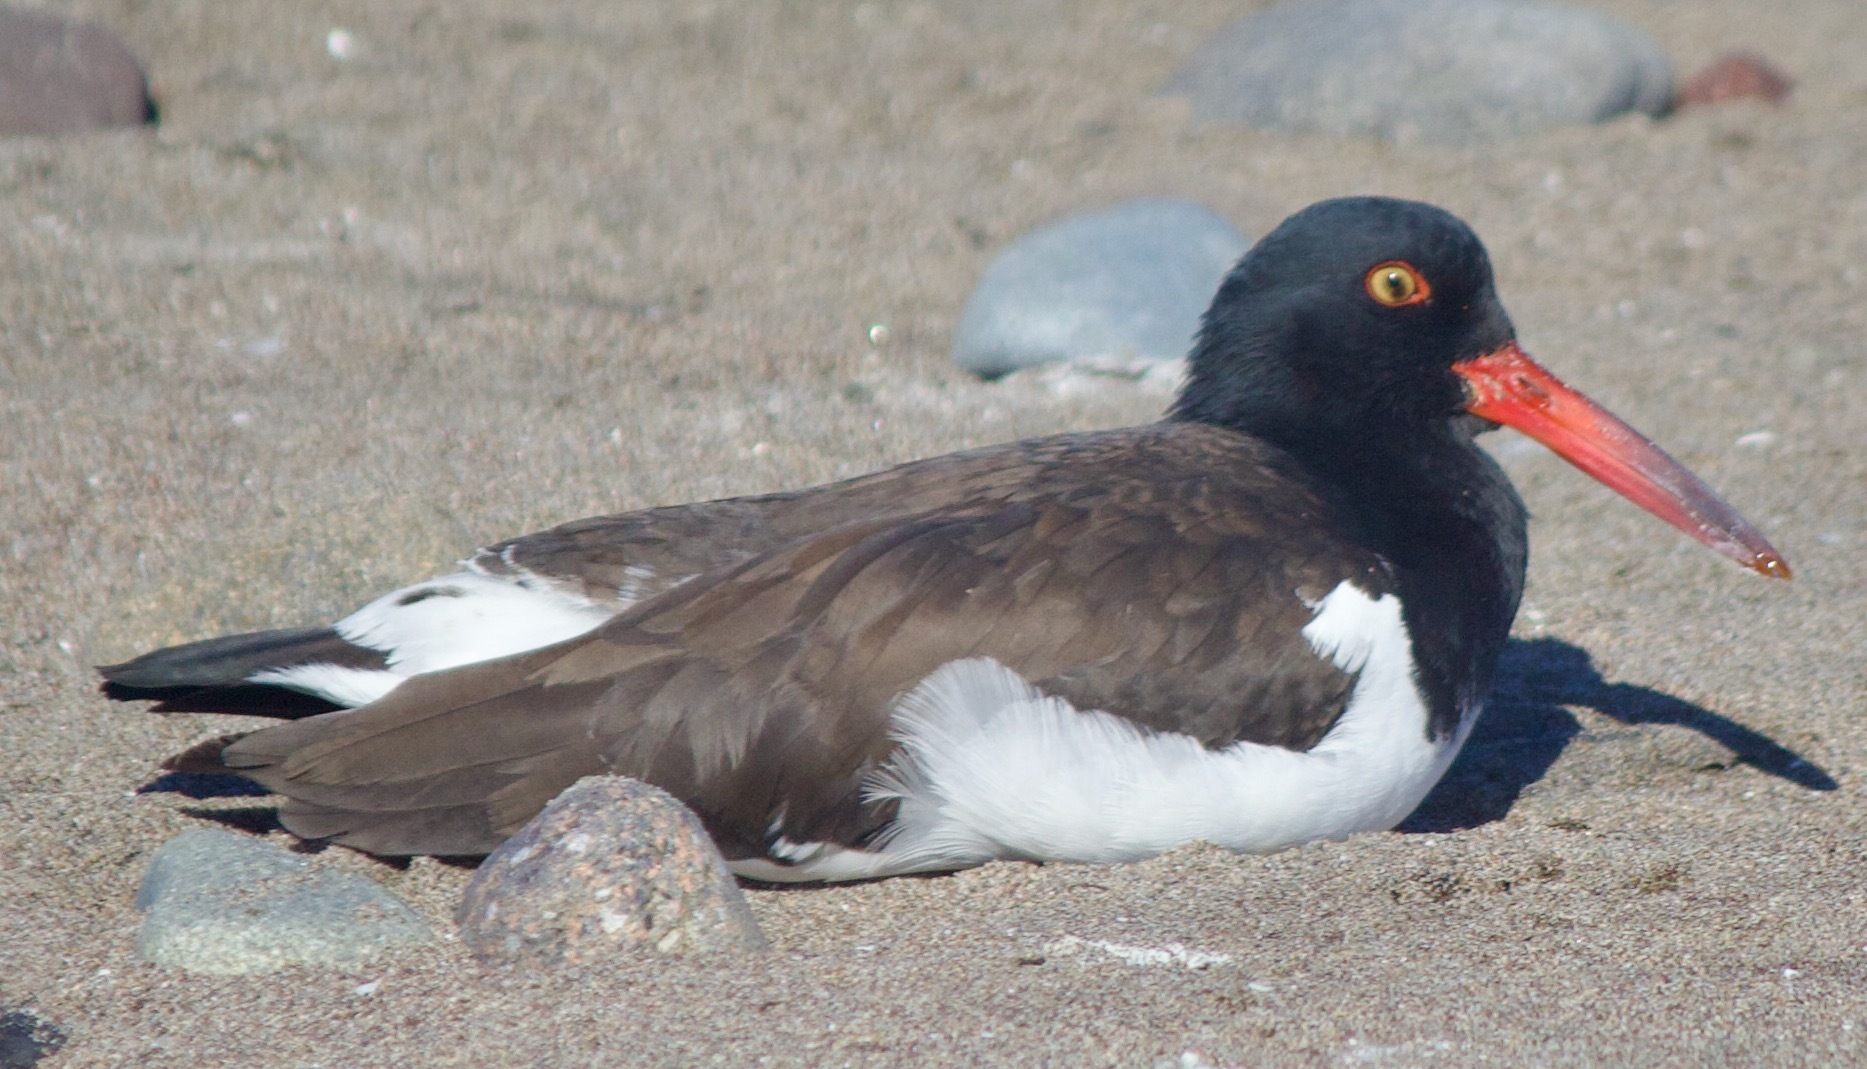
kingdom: Animalia
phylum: Chordata
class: Aves
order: Charadriiformes
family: Haematopodidae
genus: Haematopus
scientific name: Haematopus palliatus
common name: American oystercatcher
